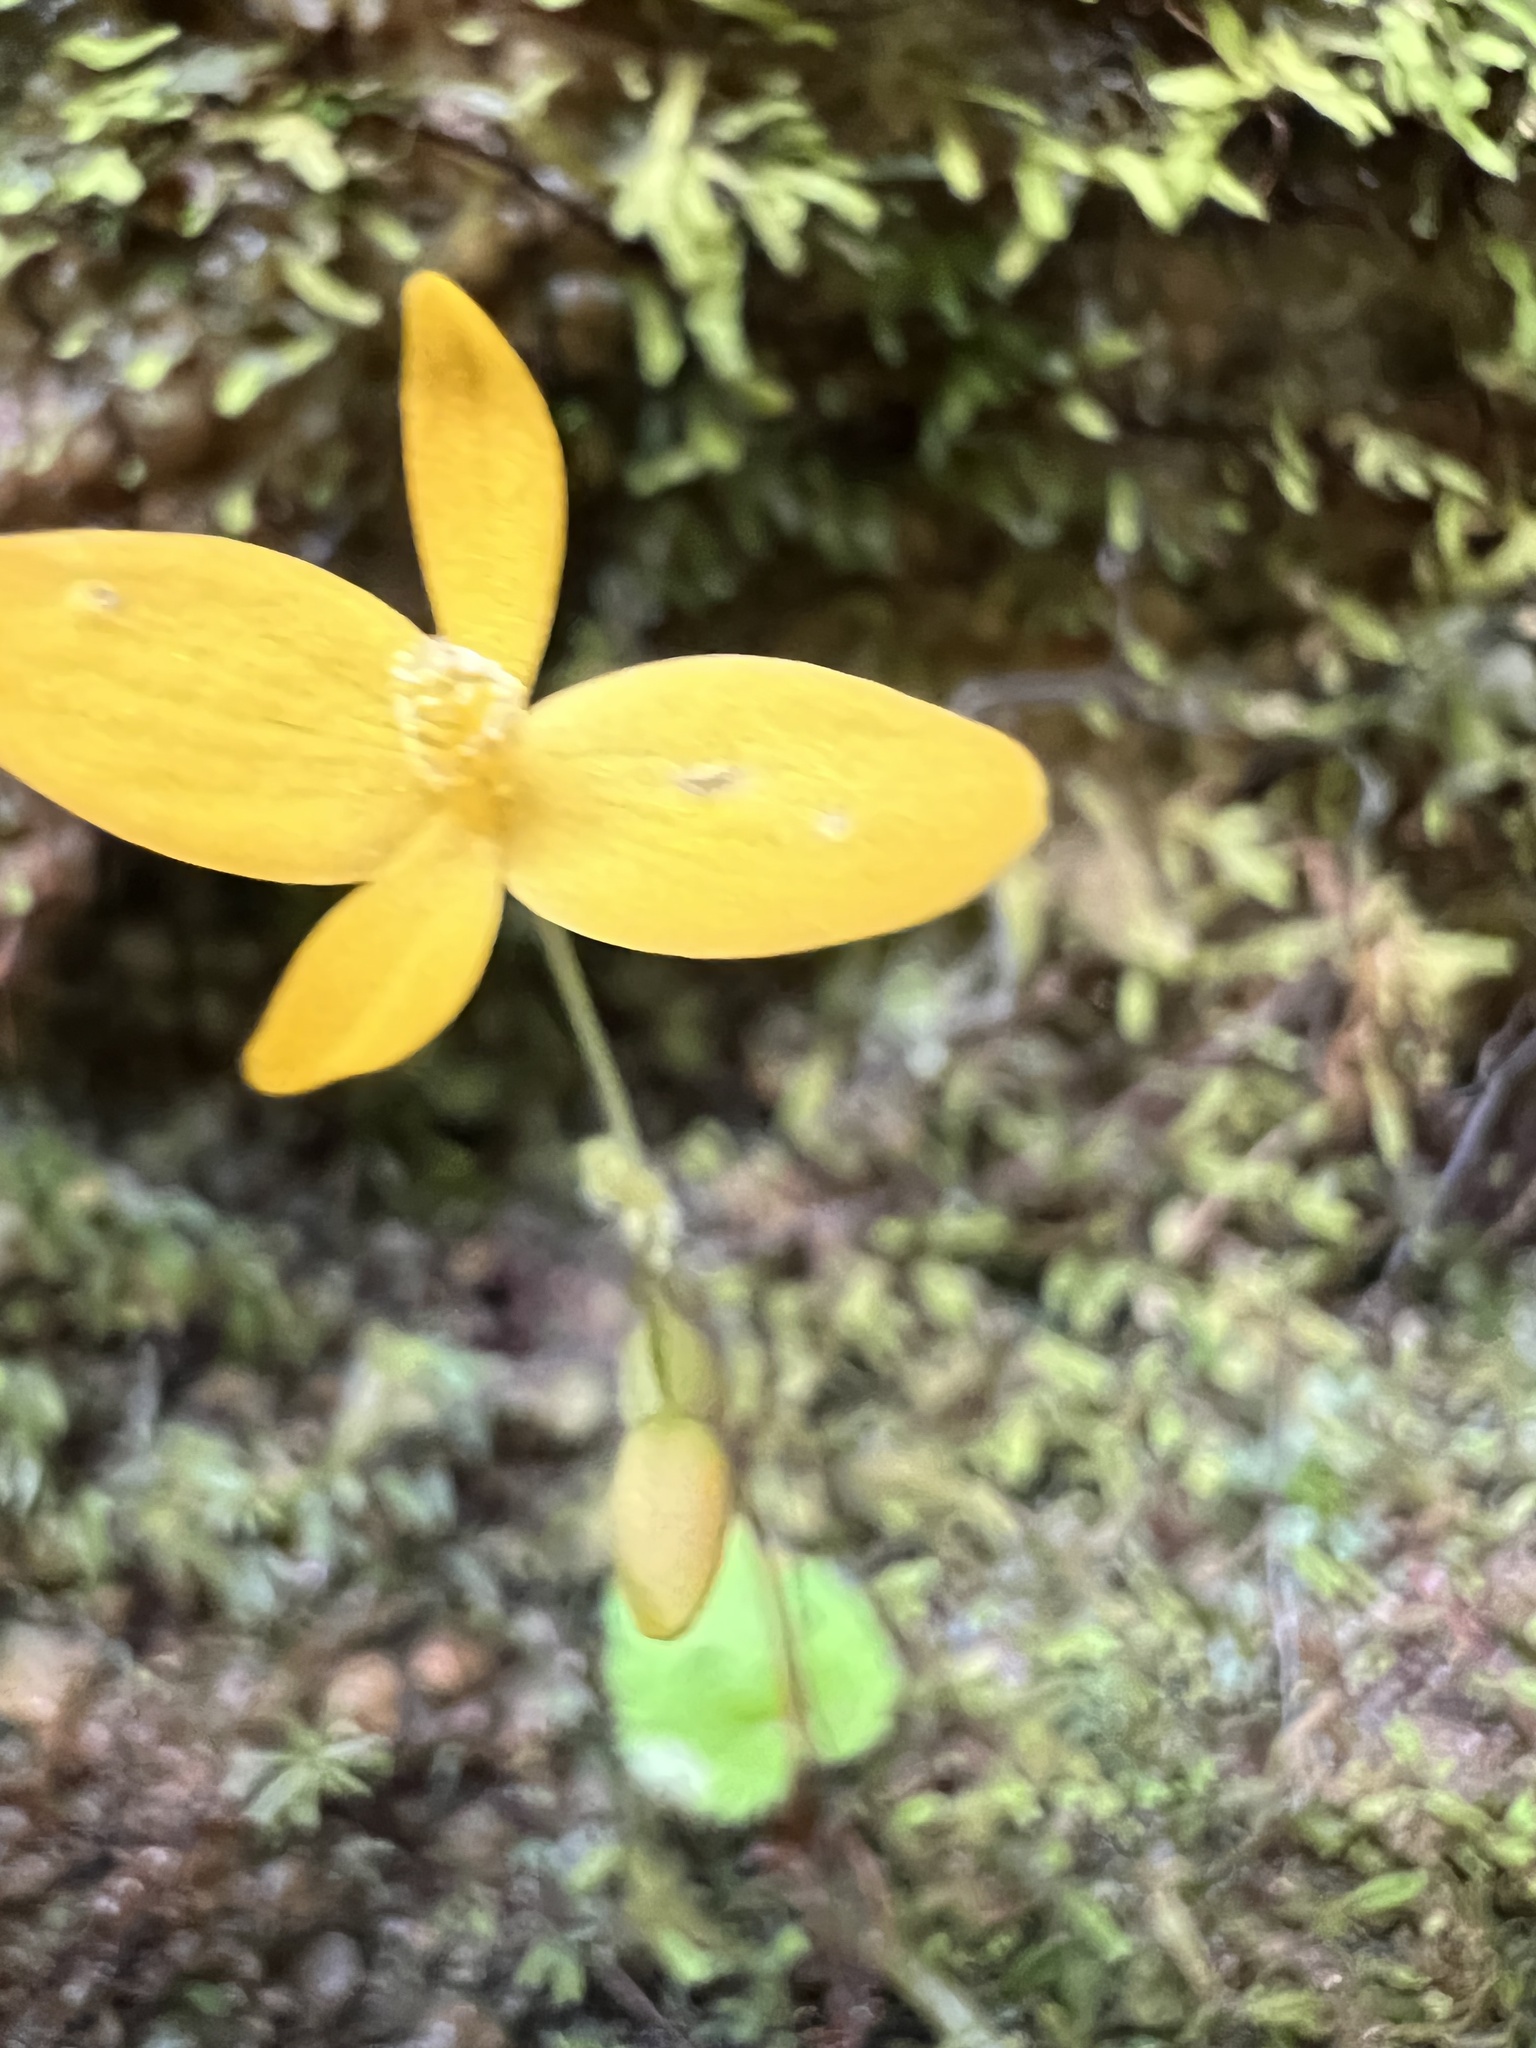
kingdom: Plantae
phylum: Tracheophyta
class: Magnoliopsida
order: Cucurbitales
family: Begoniaceae
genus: Begonia
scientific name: Begonia lutea
